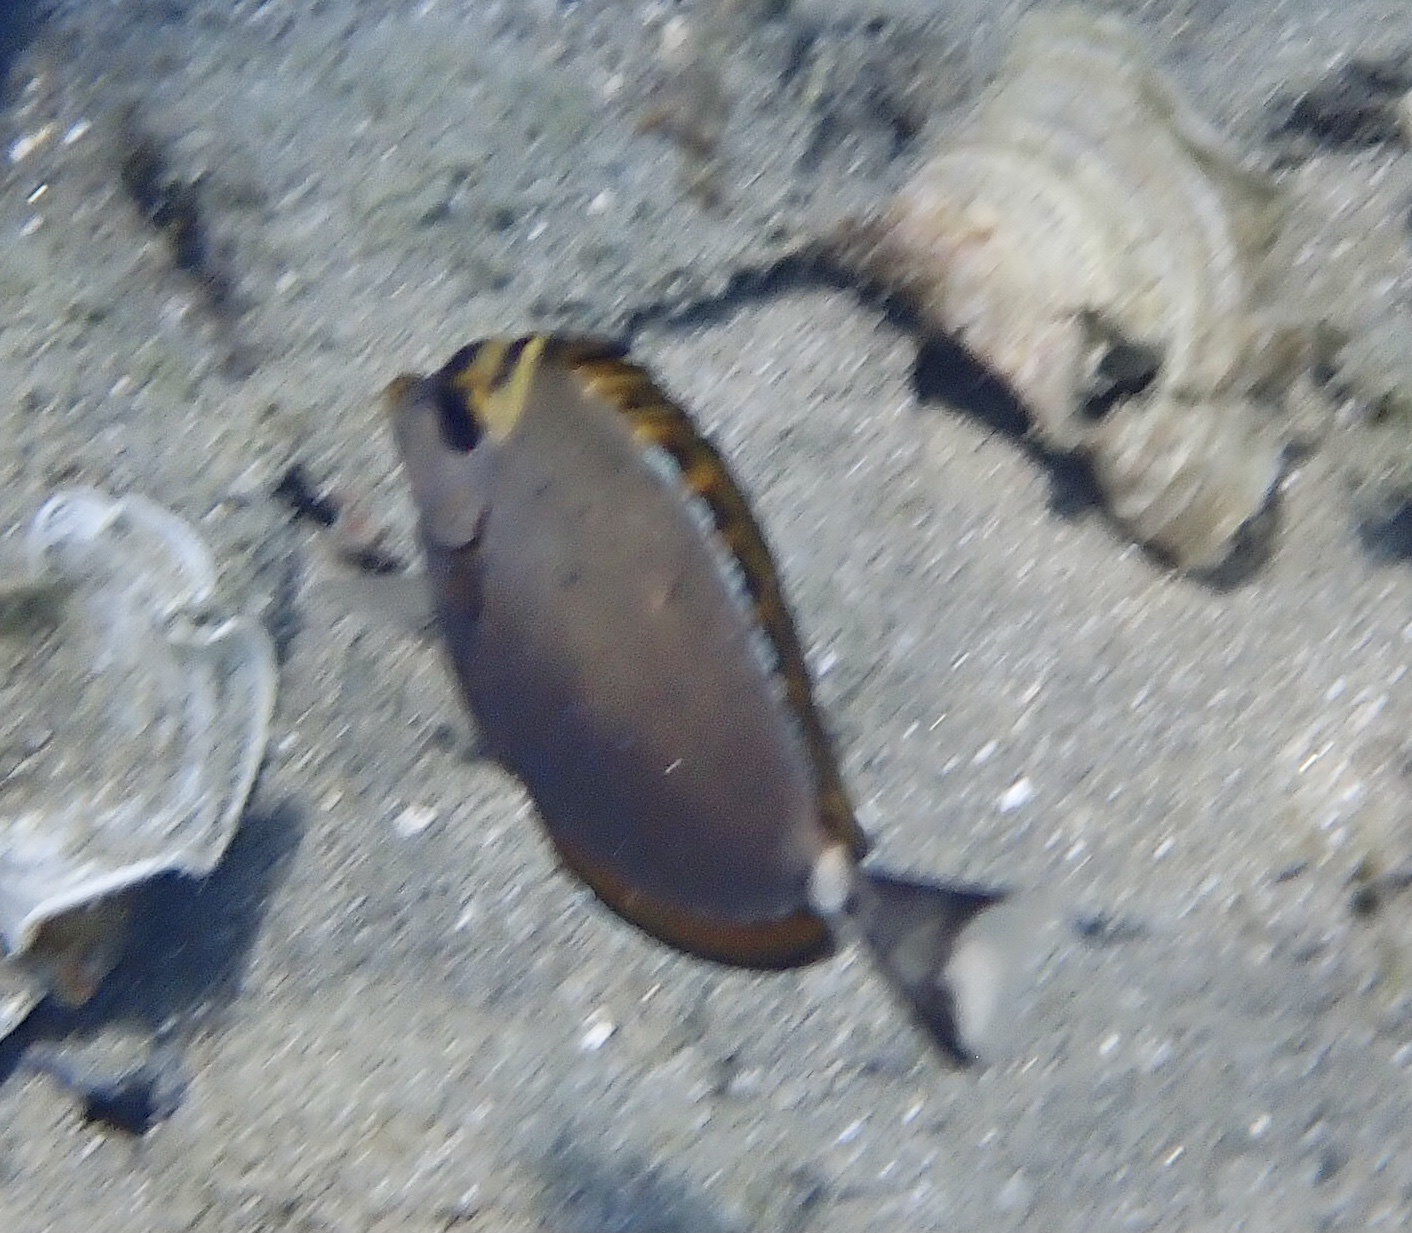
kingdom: Animalia
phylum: Chordata
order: Perciformes
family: Acanthuridae
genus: Naso
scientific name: Naso elegans
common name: Orangespine unicornfish
